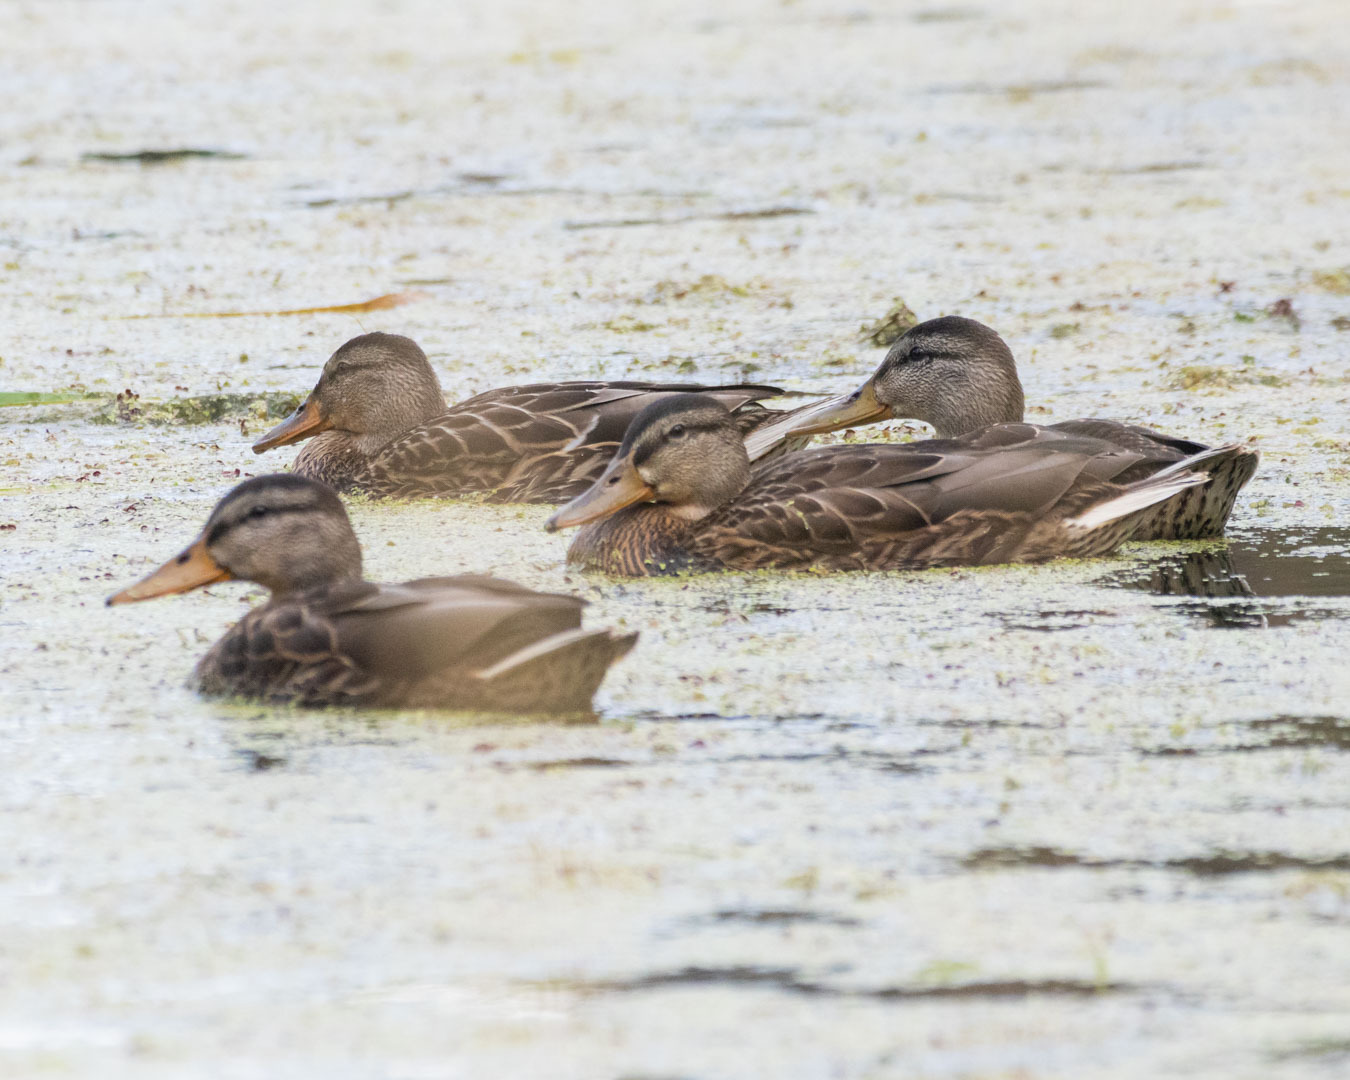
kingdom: Animalia
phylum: Chordata
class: Aves
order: Anseriformes
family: Anatidae
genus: Anas
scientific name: Anas platyrhynchos
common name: Mallard
